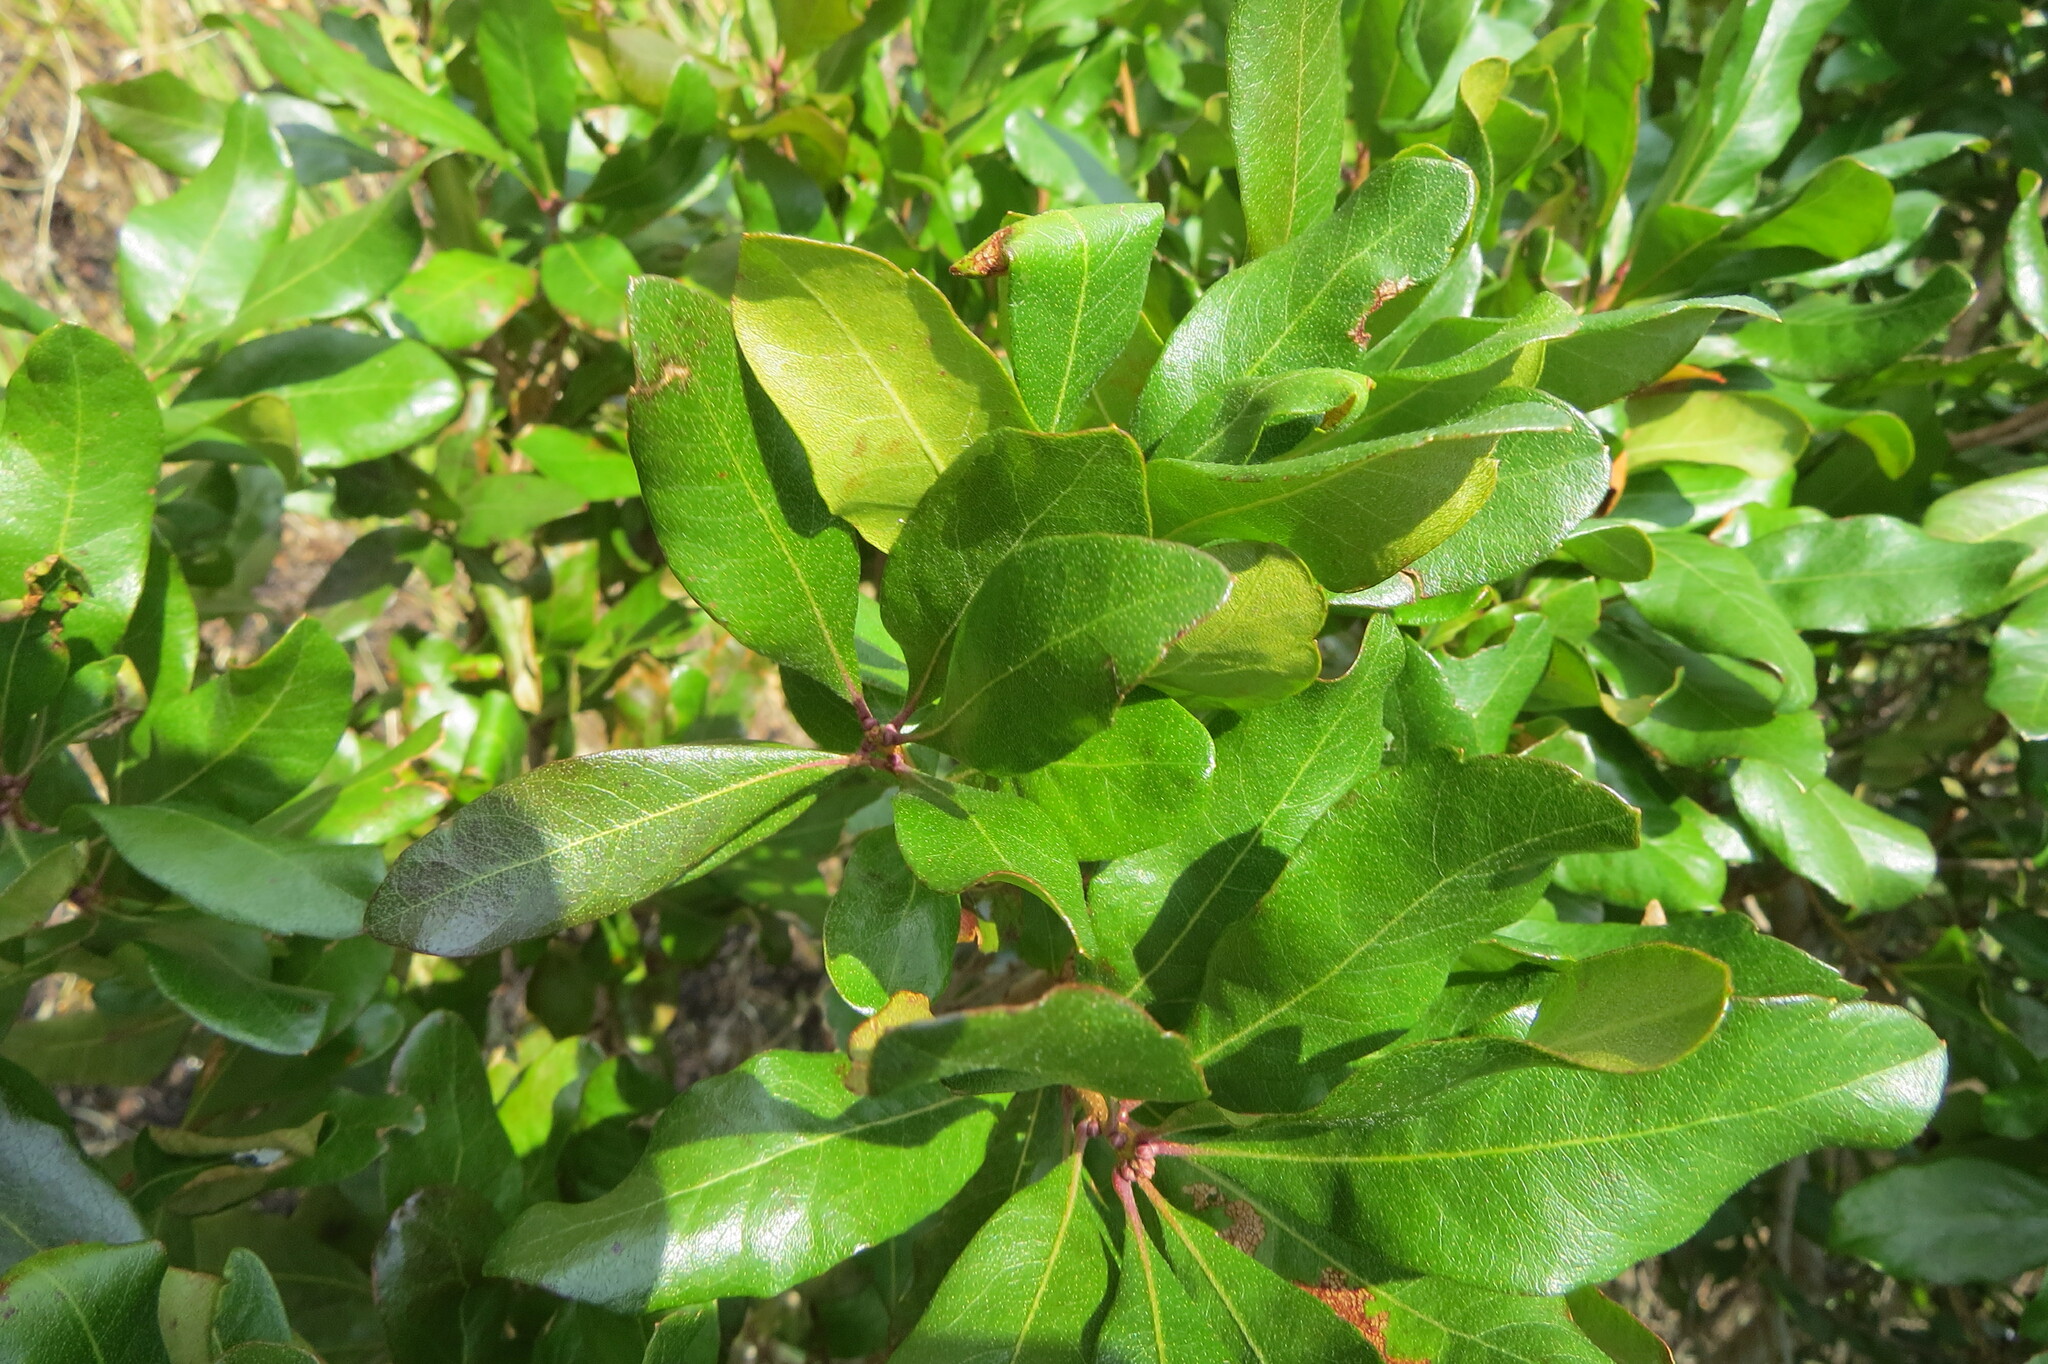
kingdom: Plantae
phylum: Tracheophyta
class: Magnoliopsida
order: Fagales
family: Myricaceae
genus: Morella
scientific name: Morella pensylvanica
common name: Northern bayberry
